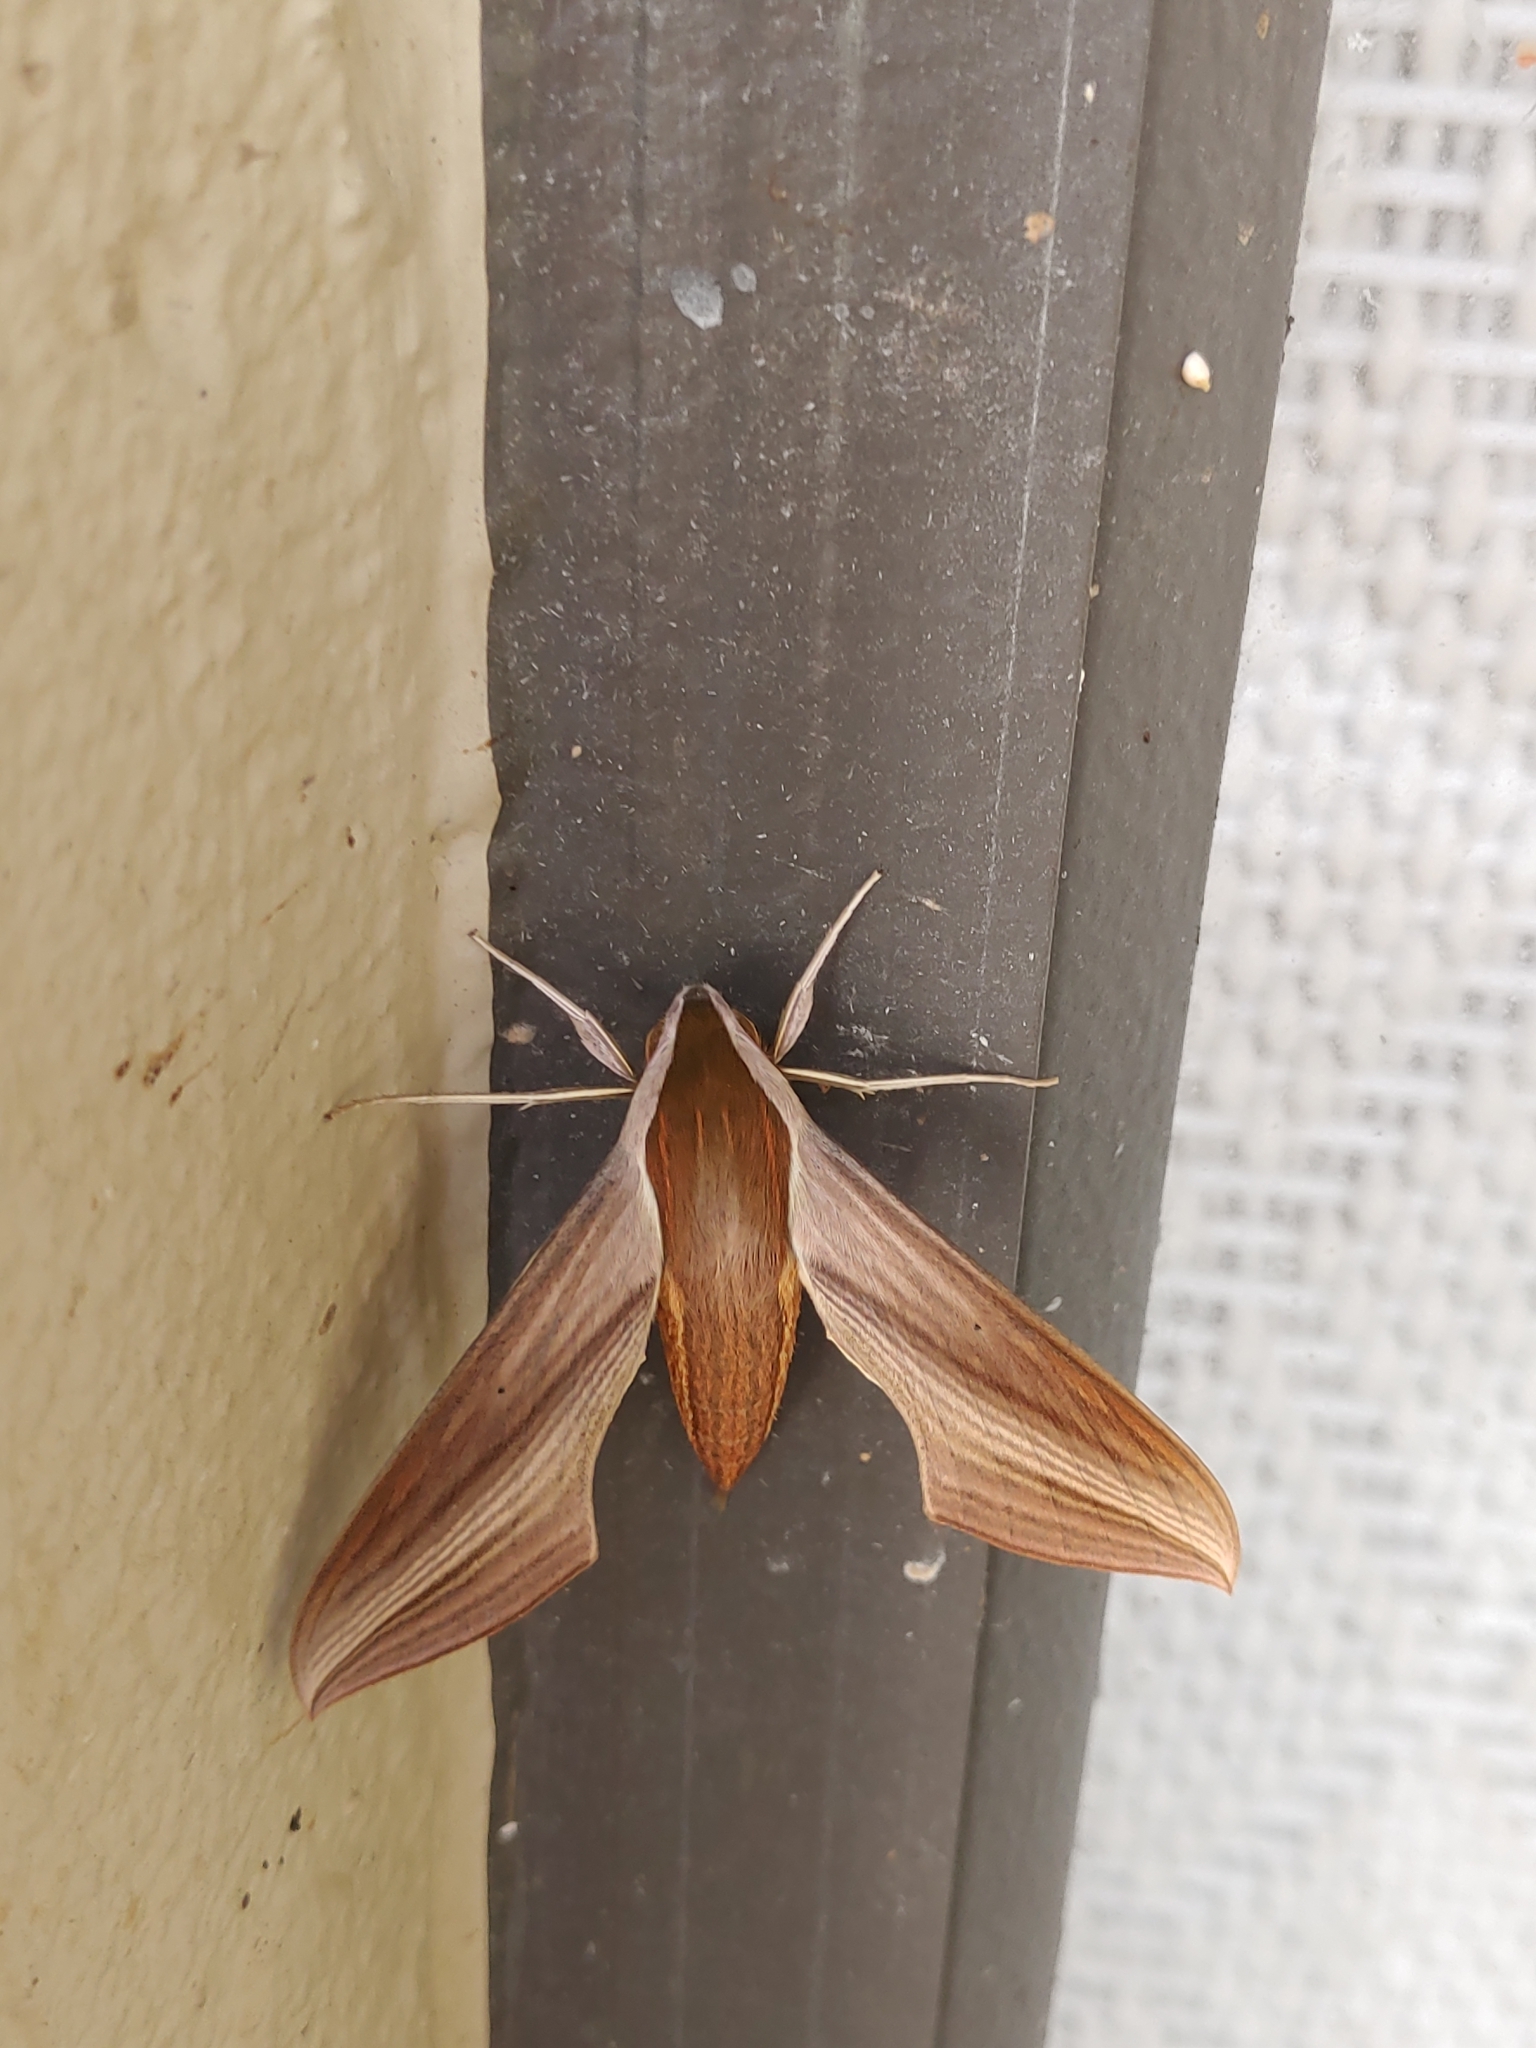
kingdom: Animalia
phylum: Arthropoda
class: Insecta
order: Lepidoptera
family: Sphingidae
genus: Xylophanes
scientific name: Xylophanes tersa
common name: Tersa sphinx
